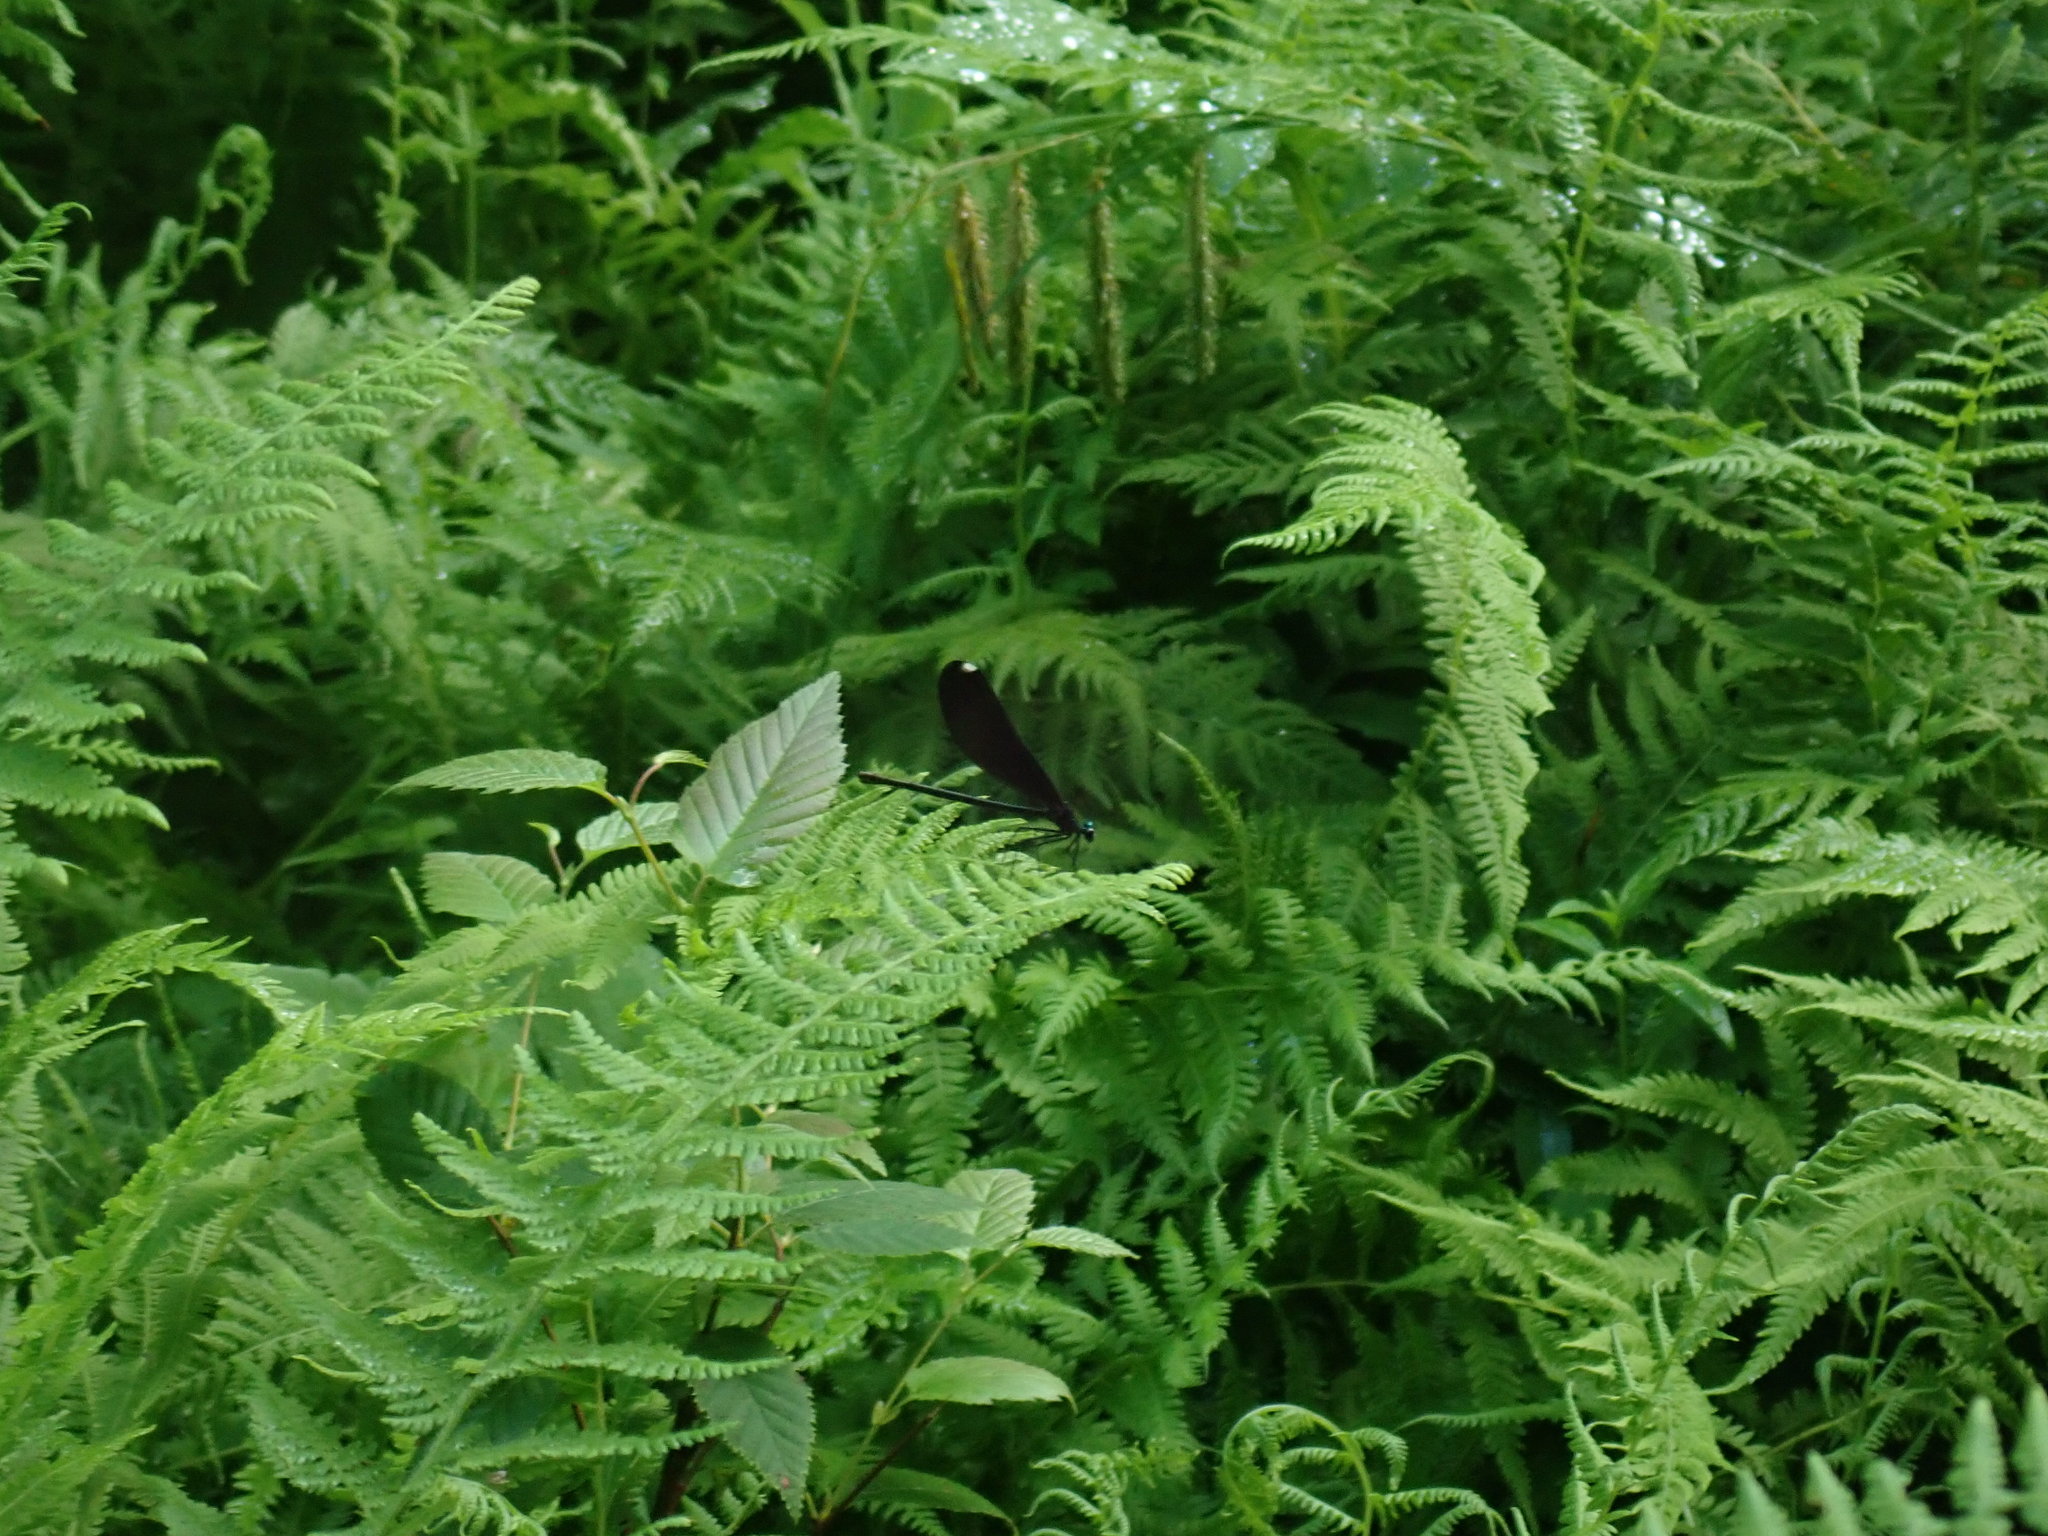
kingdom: Animalia
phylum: Arthropoda
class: Insecta
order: Odonata
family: Calopterygidae
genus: Calopteryx
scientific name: Calopteryx maculata
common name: Ebony jewelwing
